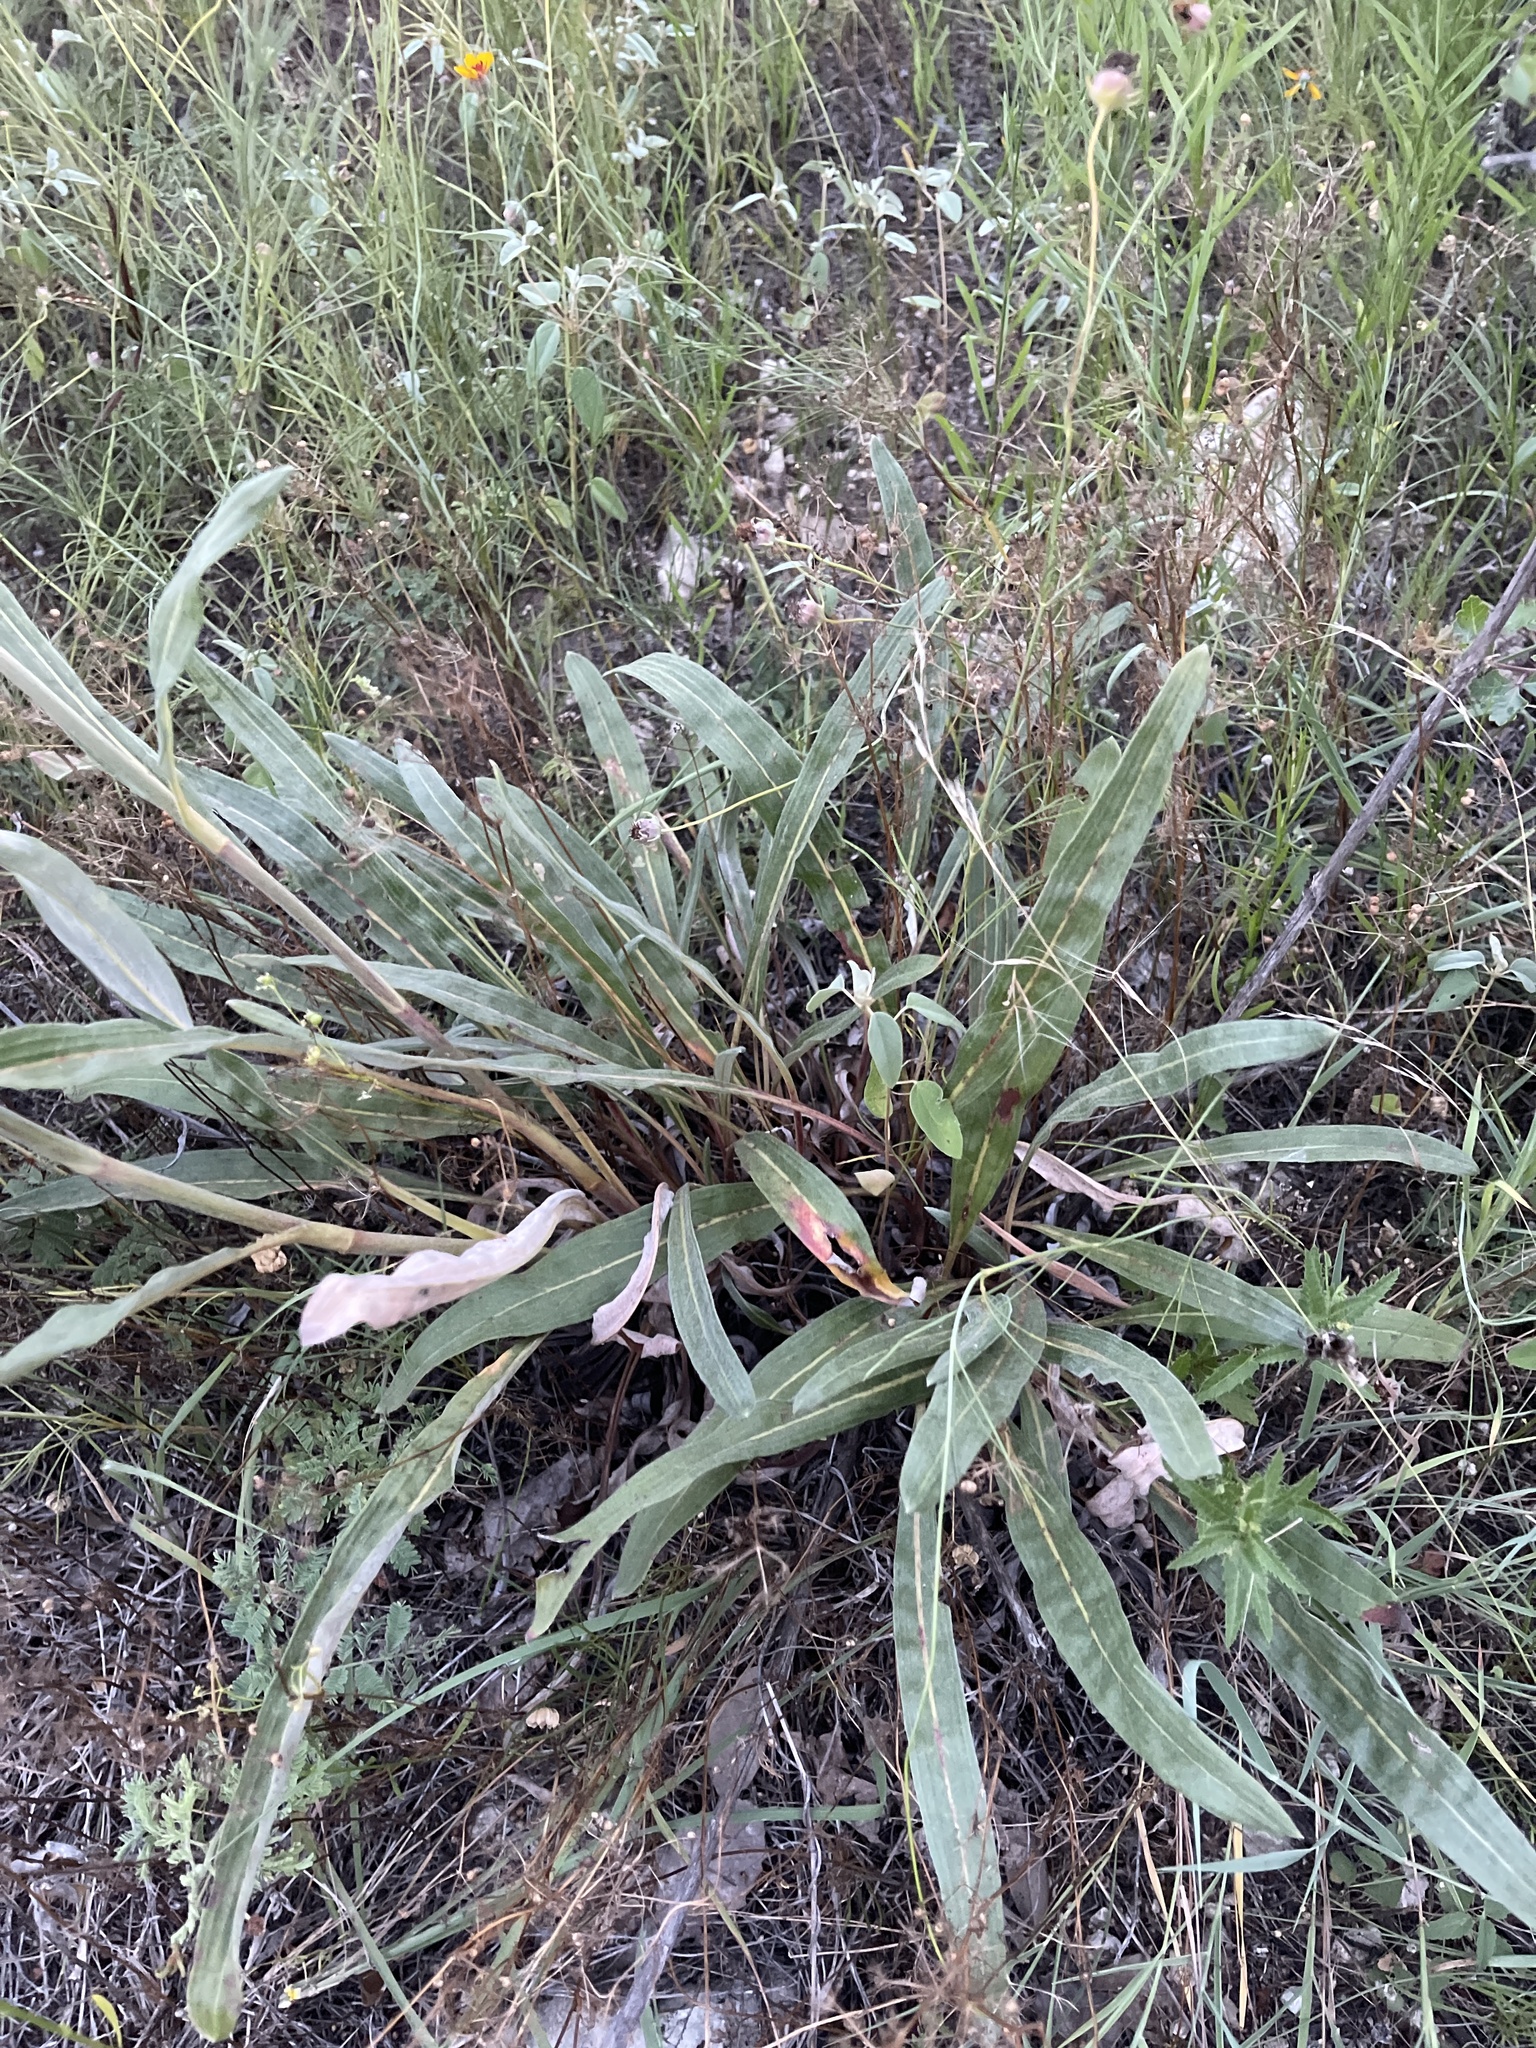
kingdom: Plantae
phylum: Tracheophyta
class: Magnoliopsida
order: Caryophyllales
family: Polygonaceae
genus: Eriogonum
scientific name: Eriogonum longifolium
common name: Longleaf wild buckwheat
